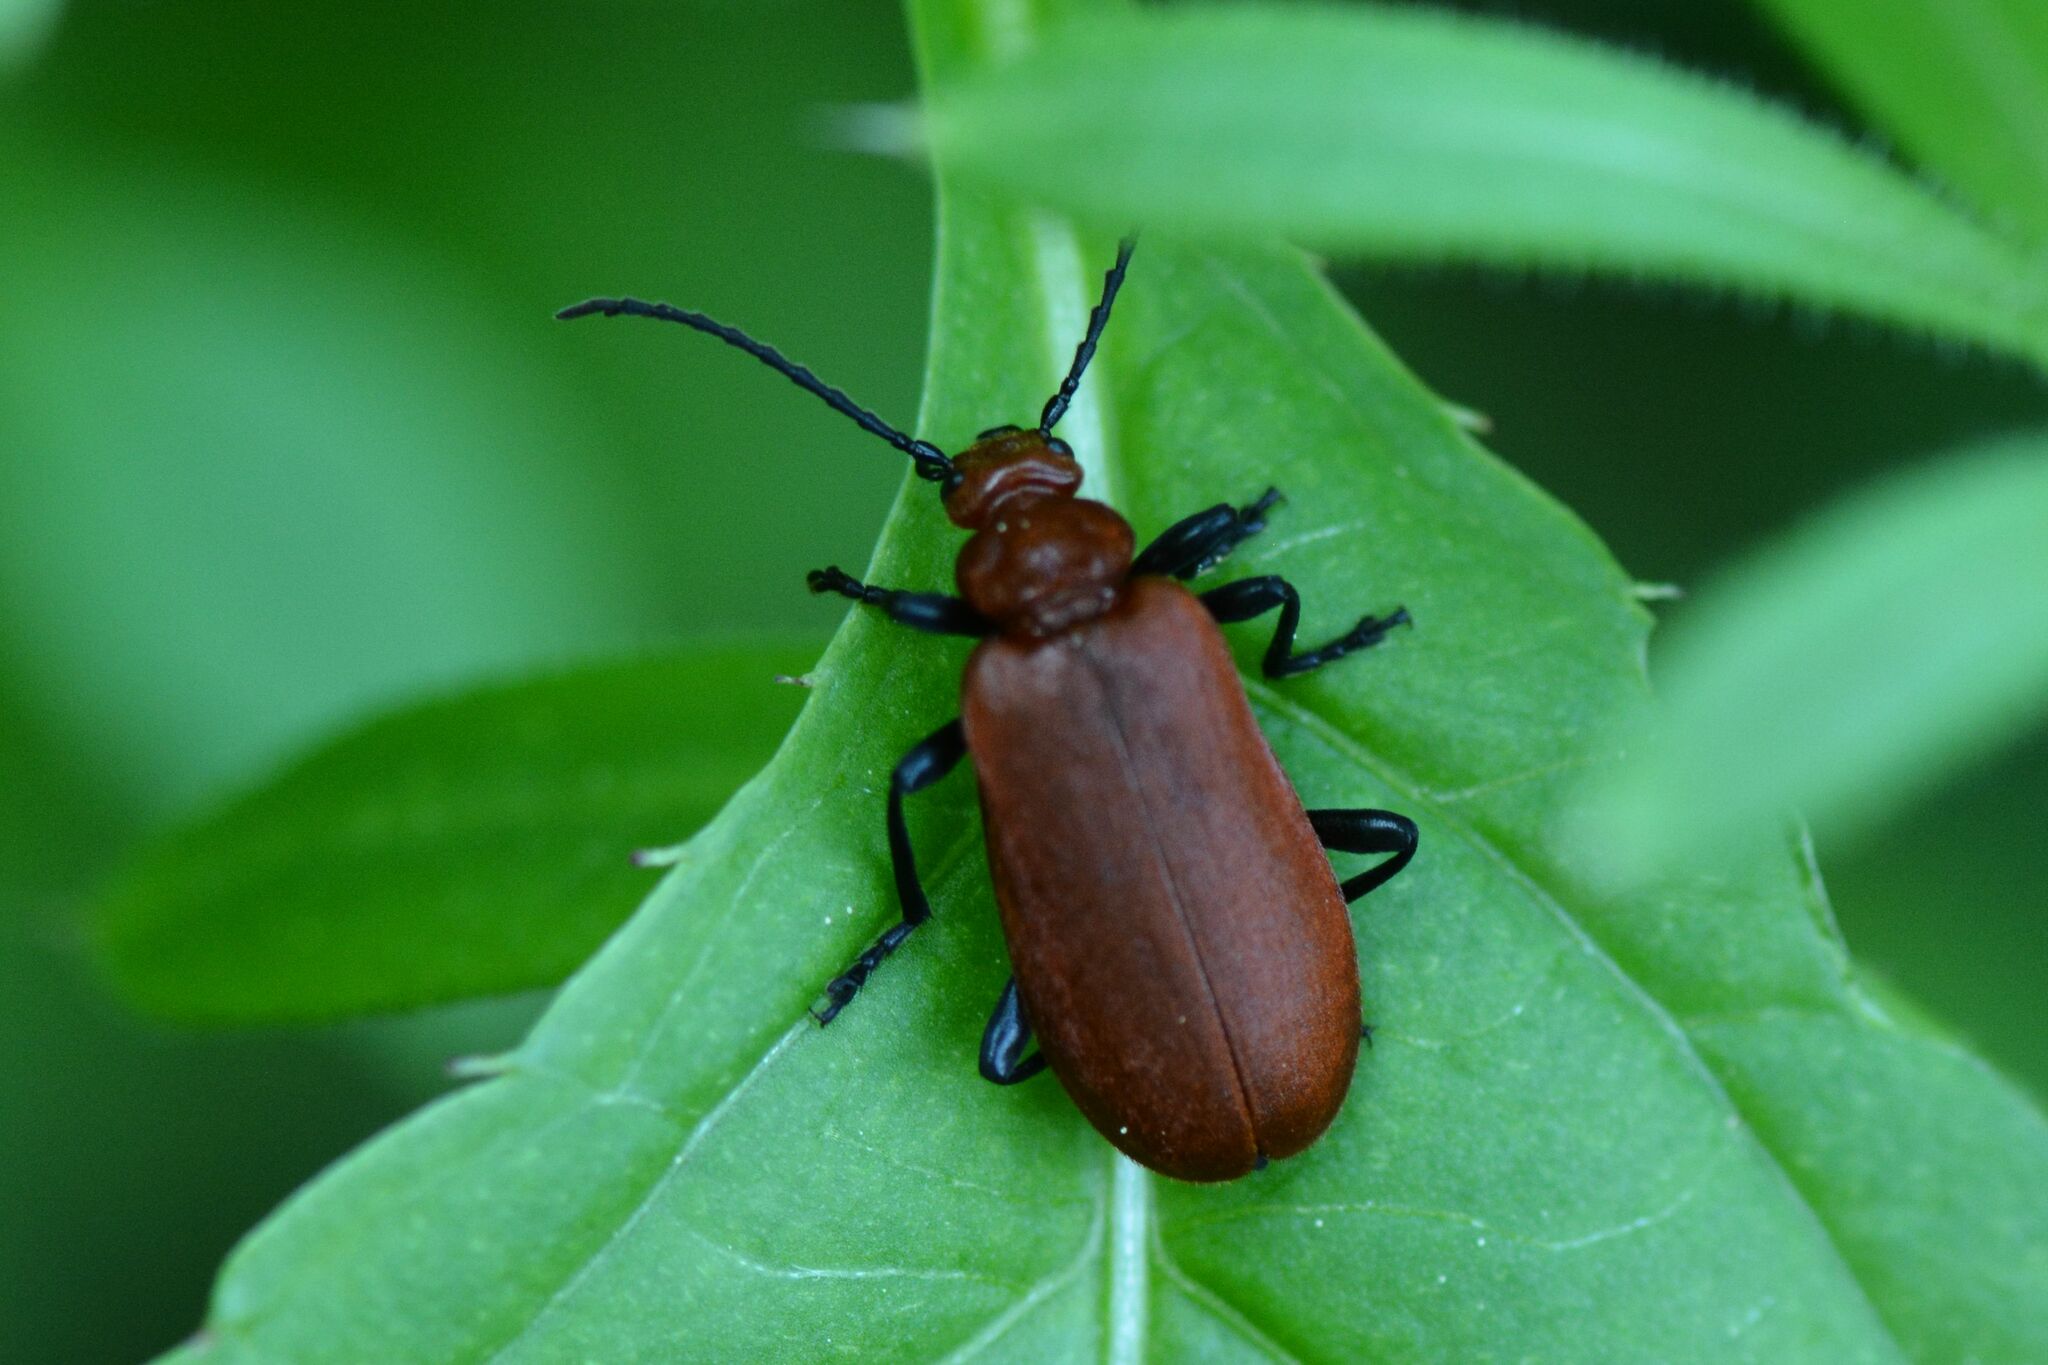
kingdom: Animalia
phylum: Arthropoda
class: Insecta
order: Coleoptera
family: Pyrochroidae
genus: Pyrochroa
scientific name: Pyrochroa serraticornis
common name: Red-headed cardinal beetle
